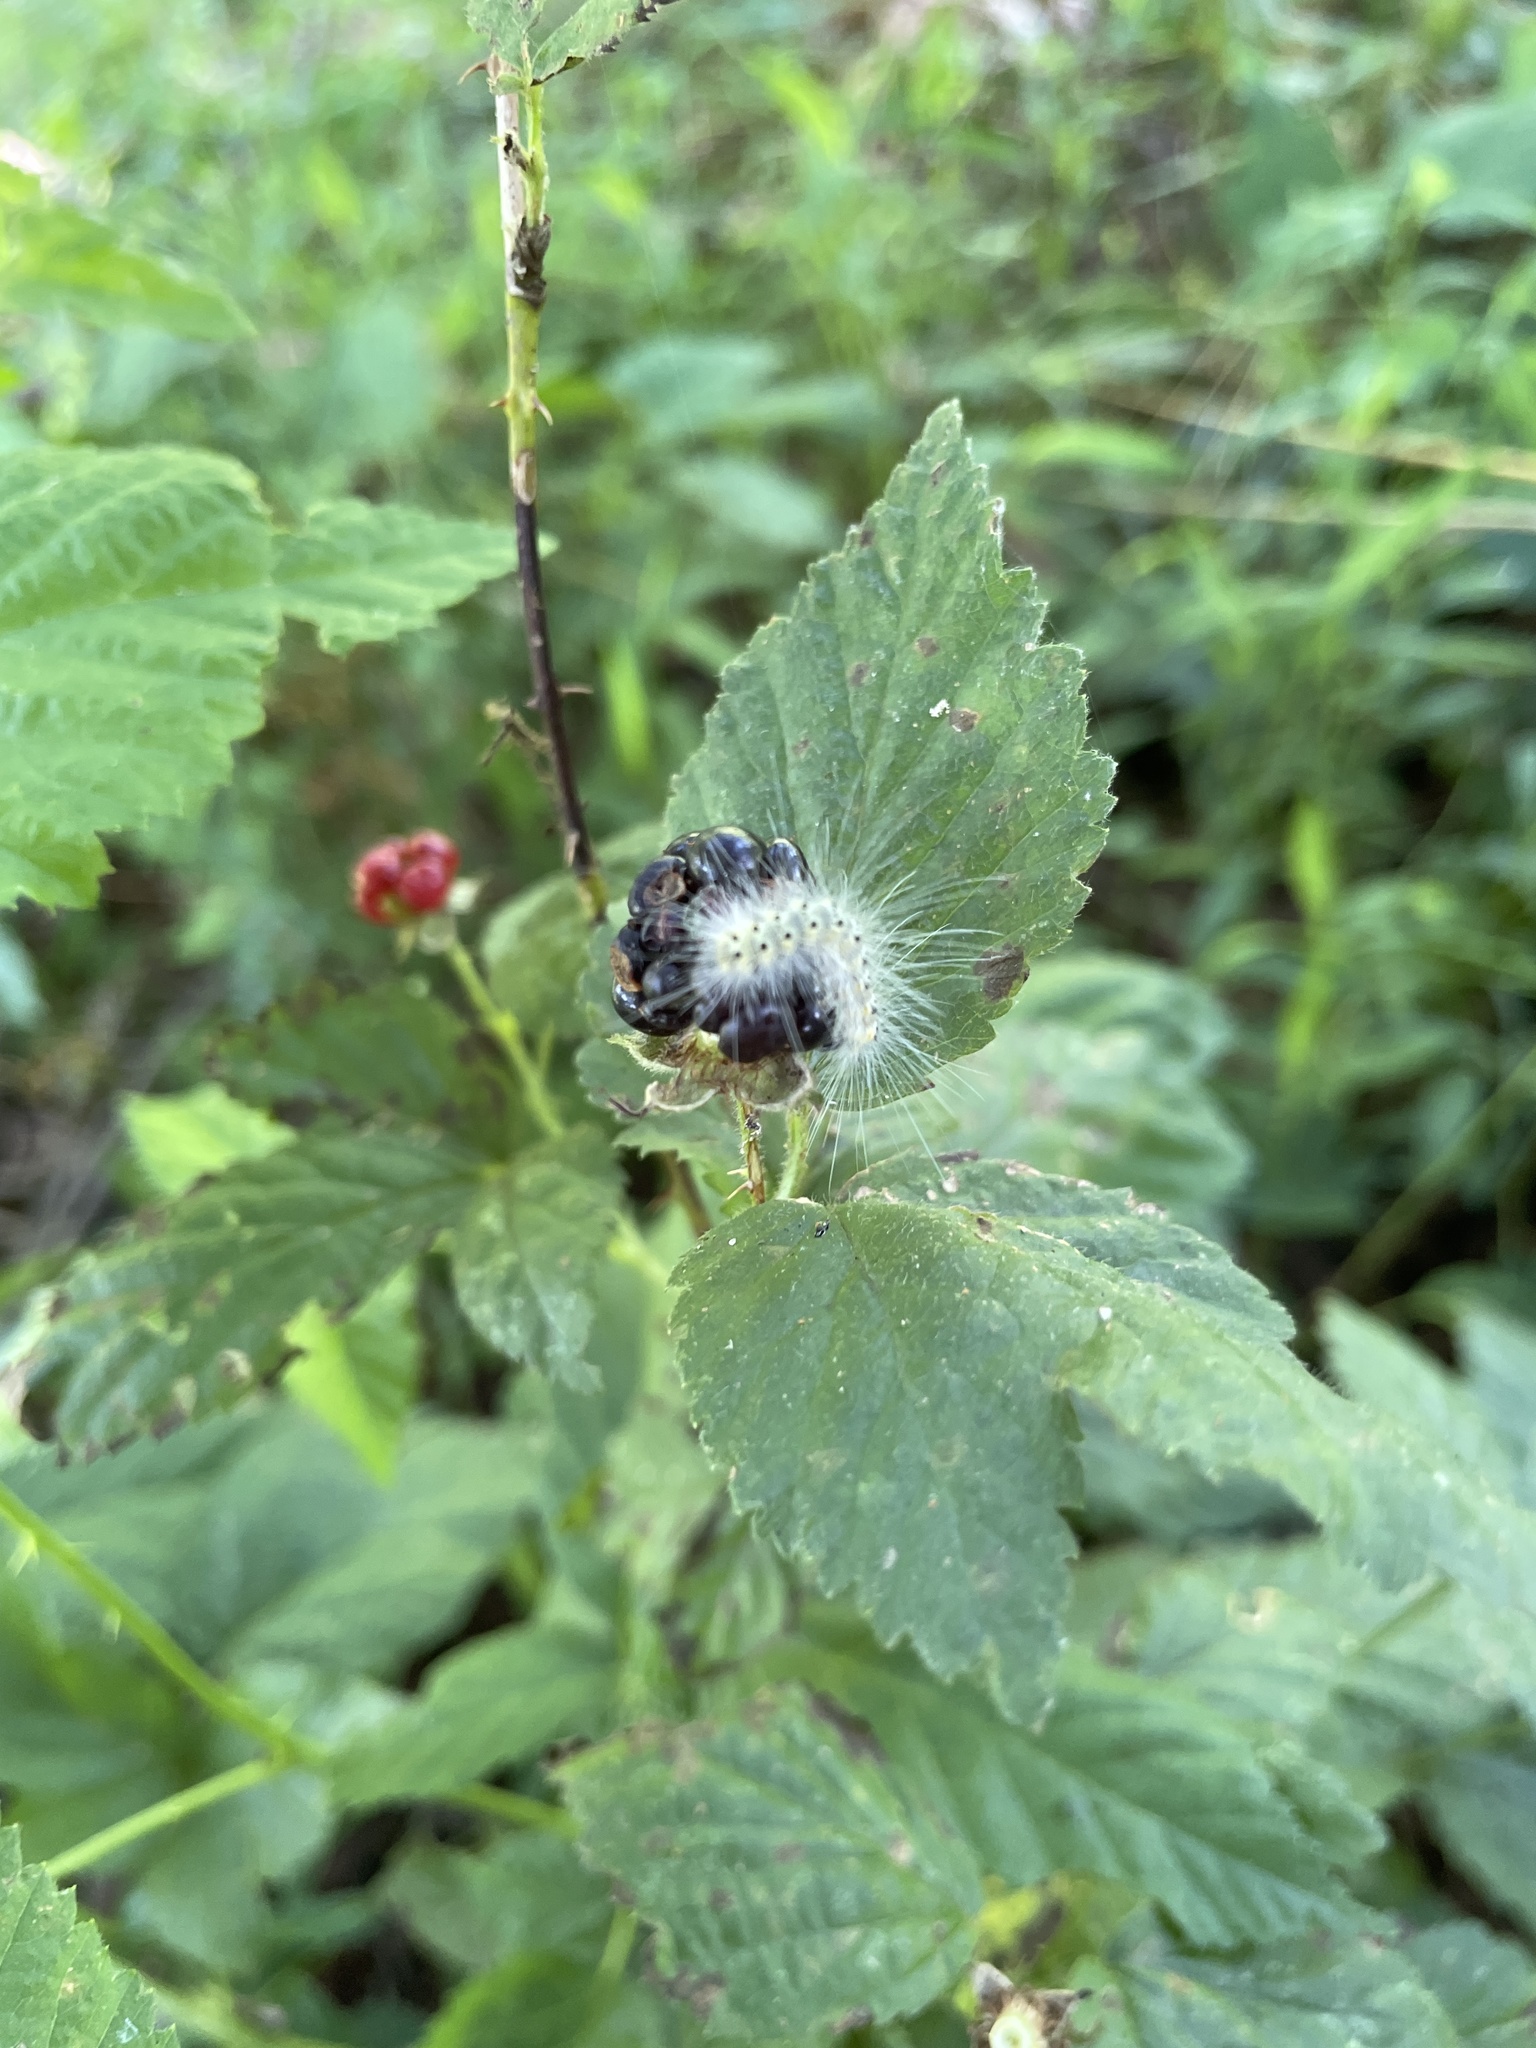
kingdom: Animalia
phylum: Arthropoda
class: Insecta
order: Lepidoptera
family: Erebidae
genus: Hyphantria
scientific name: Hyphantria cunea
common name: American white moth
